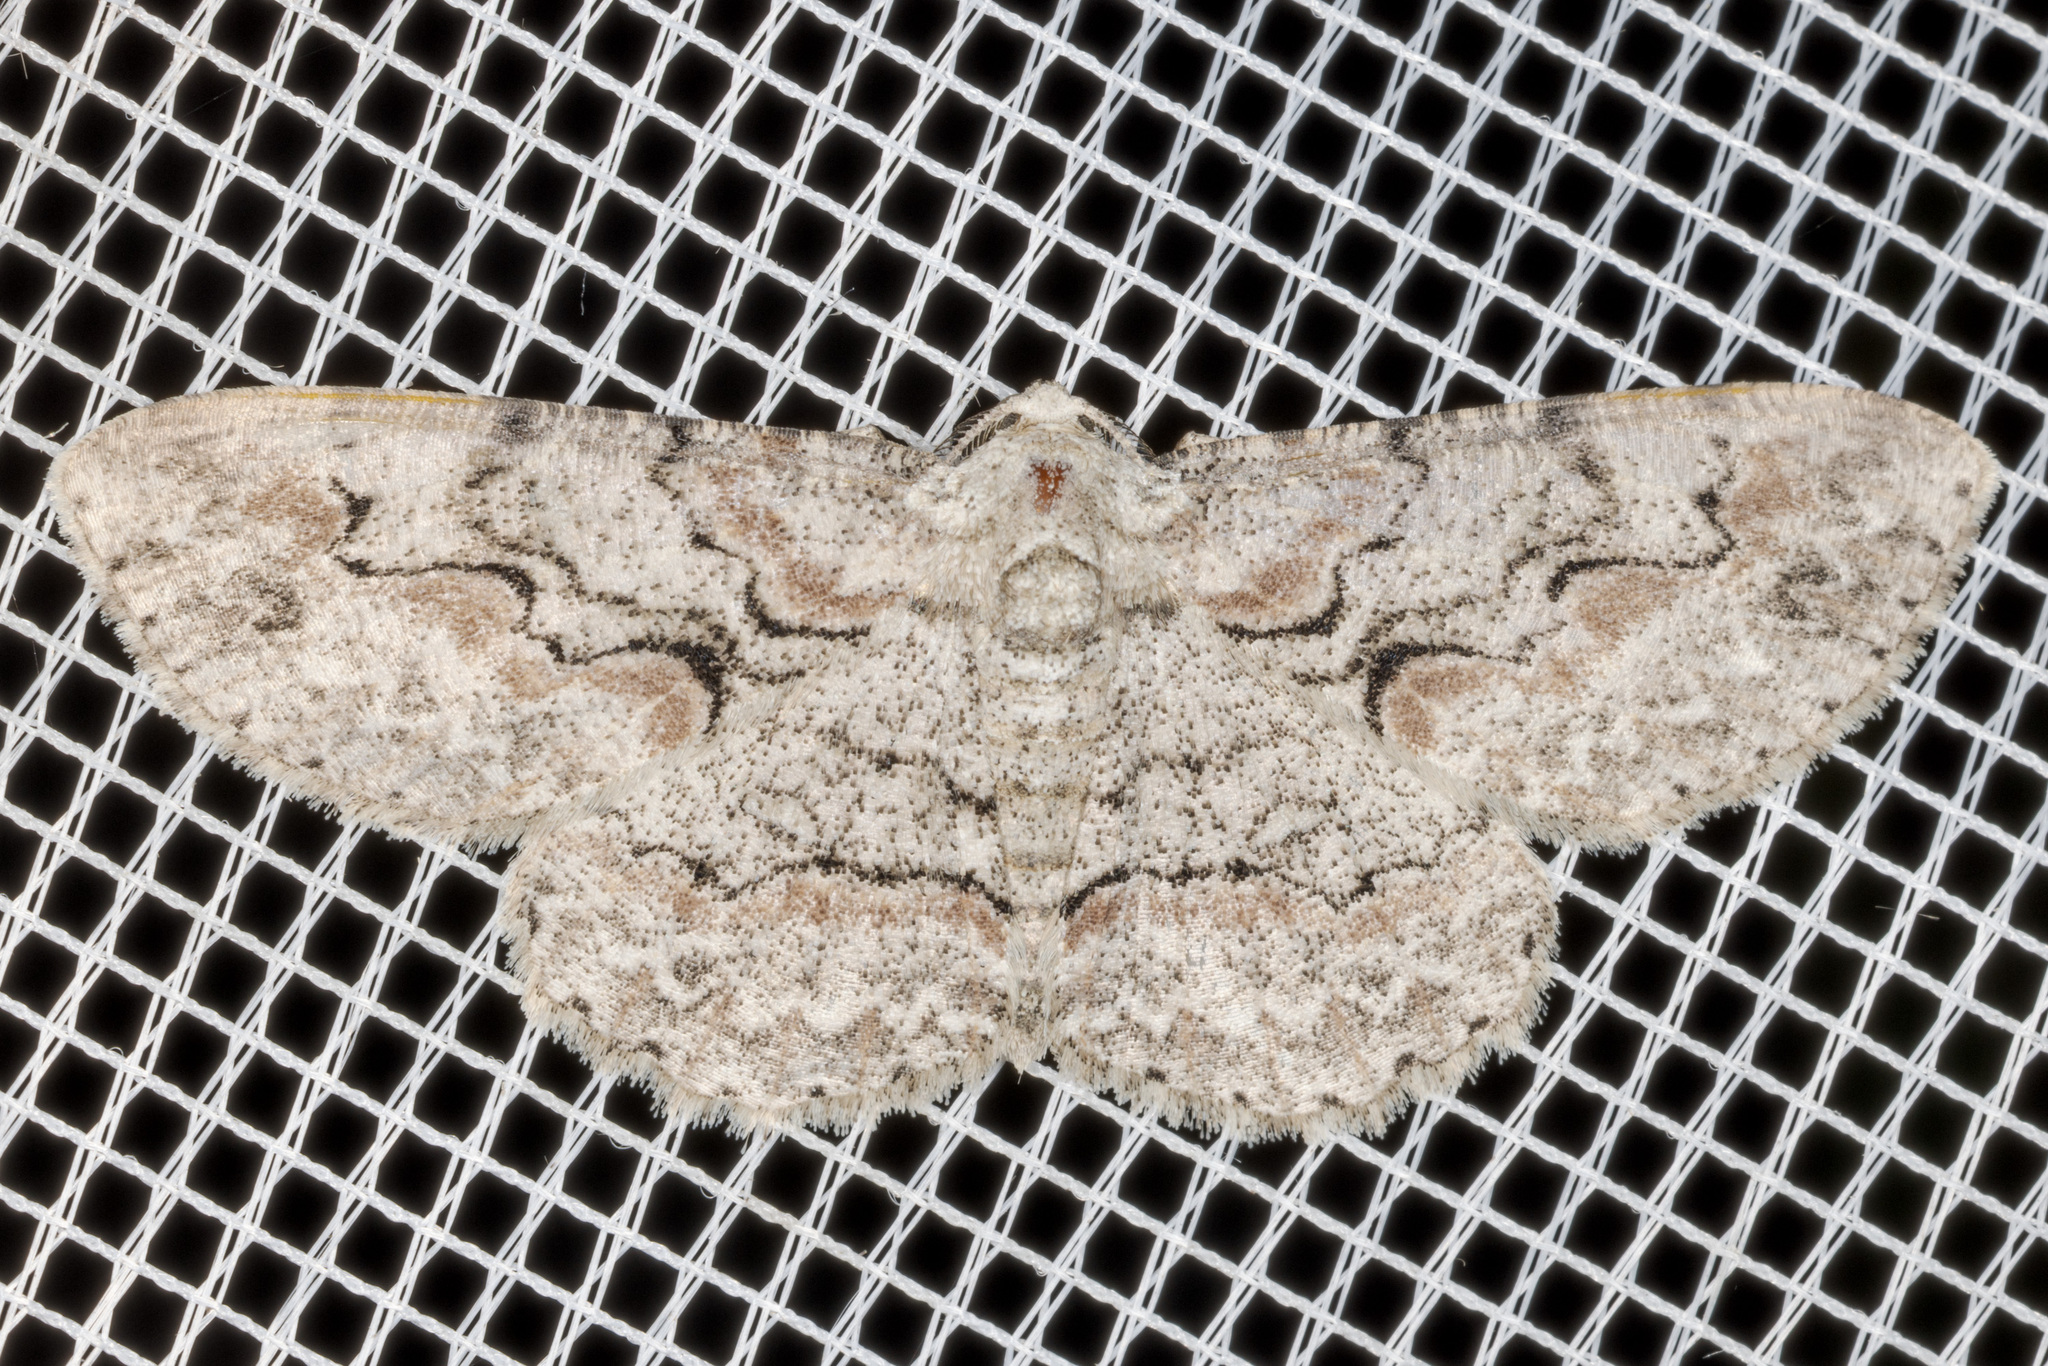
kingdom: Animalia
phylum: Arthropoda
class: Insecta
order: Lepidoptera
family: Geometridae
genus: Iridopsis
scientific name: Iridopsis defectaria
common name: Brown-shaded gray
